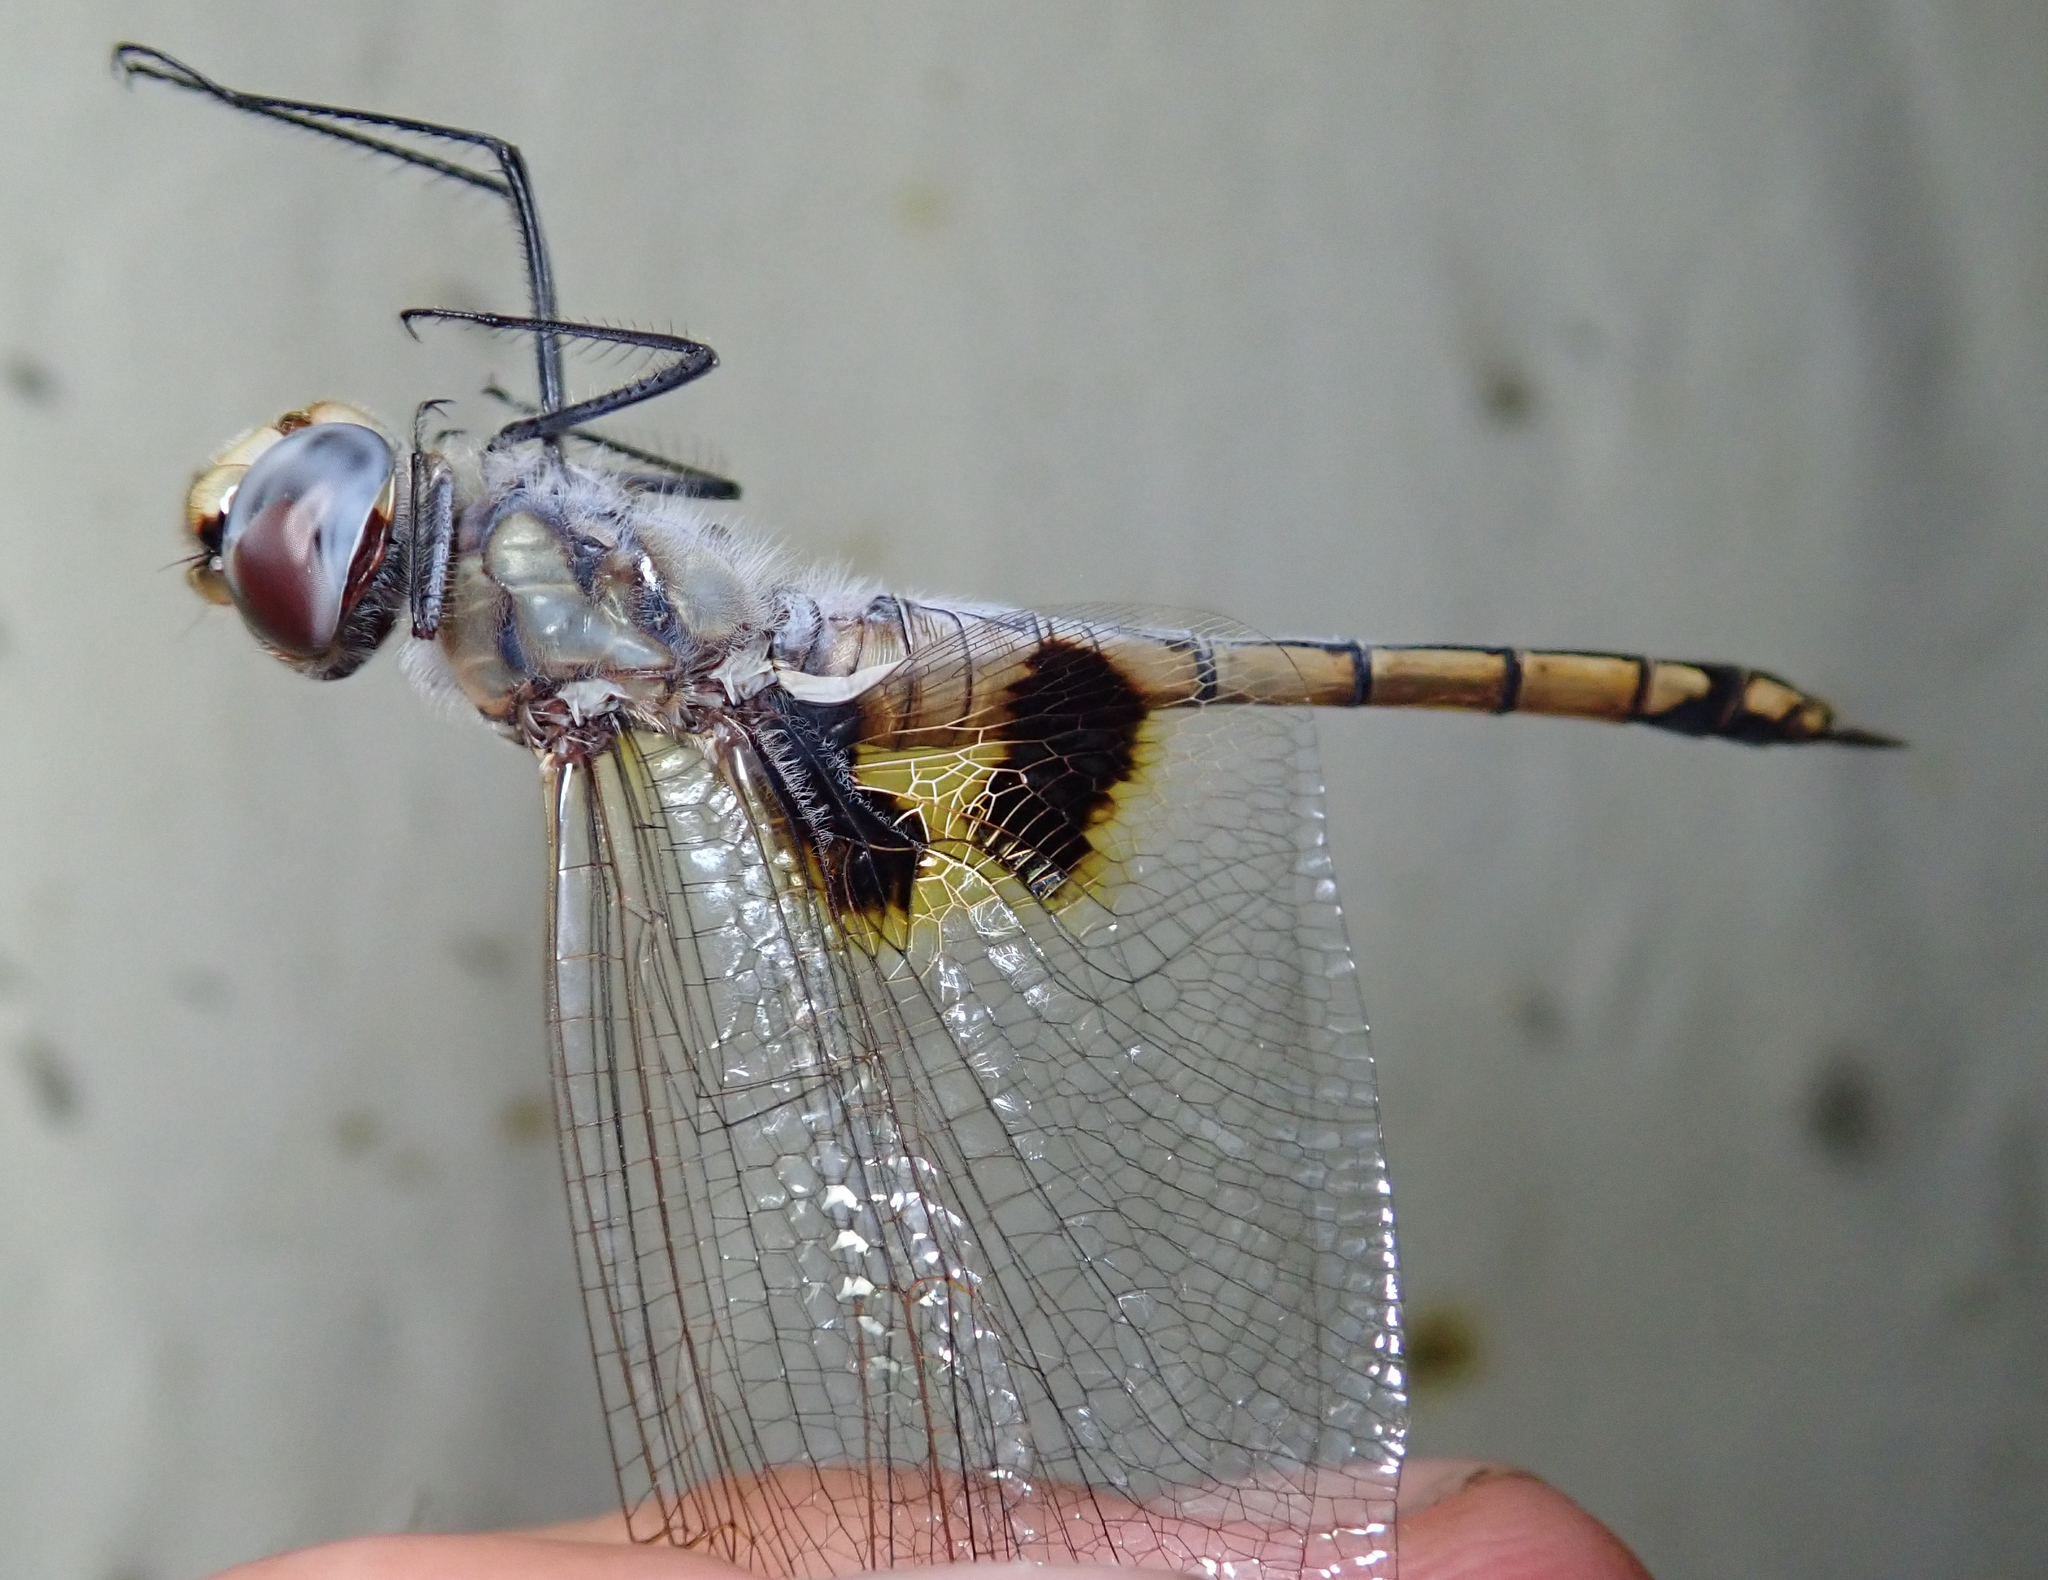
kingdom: Animalia
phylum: Arthropoda
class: Insecta
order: Odonata
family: Libellulidae
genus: Tramea
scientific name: Tramea basilaris
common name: Keyhole glider
